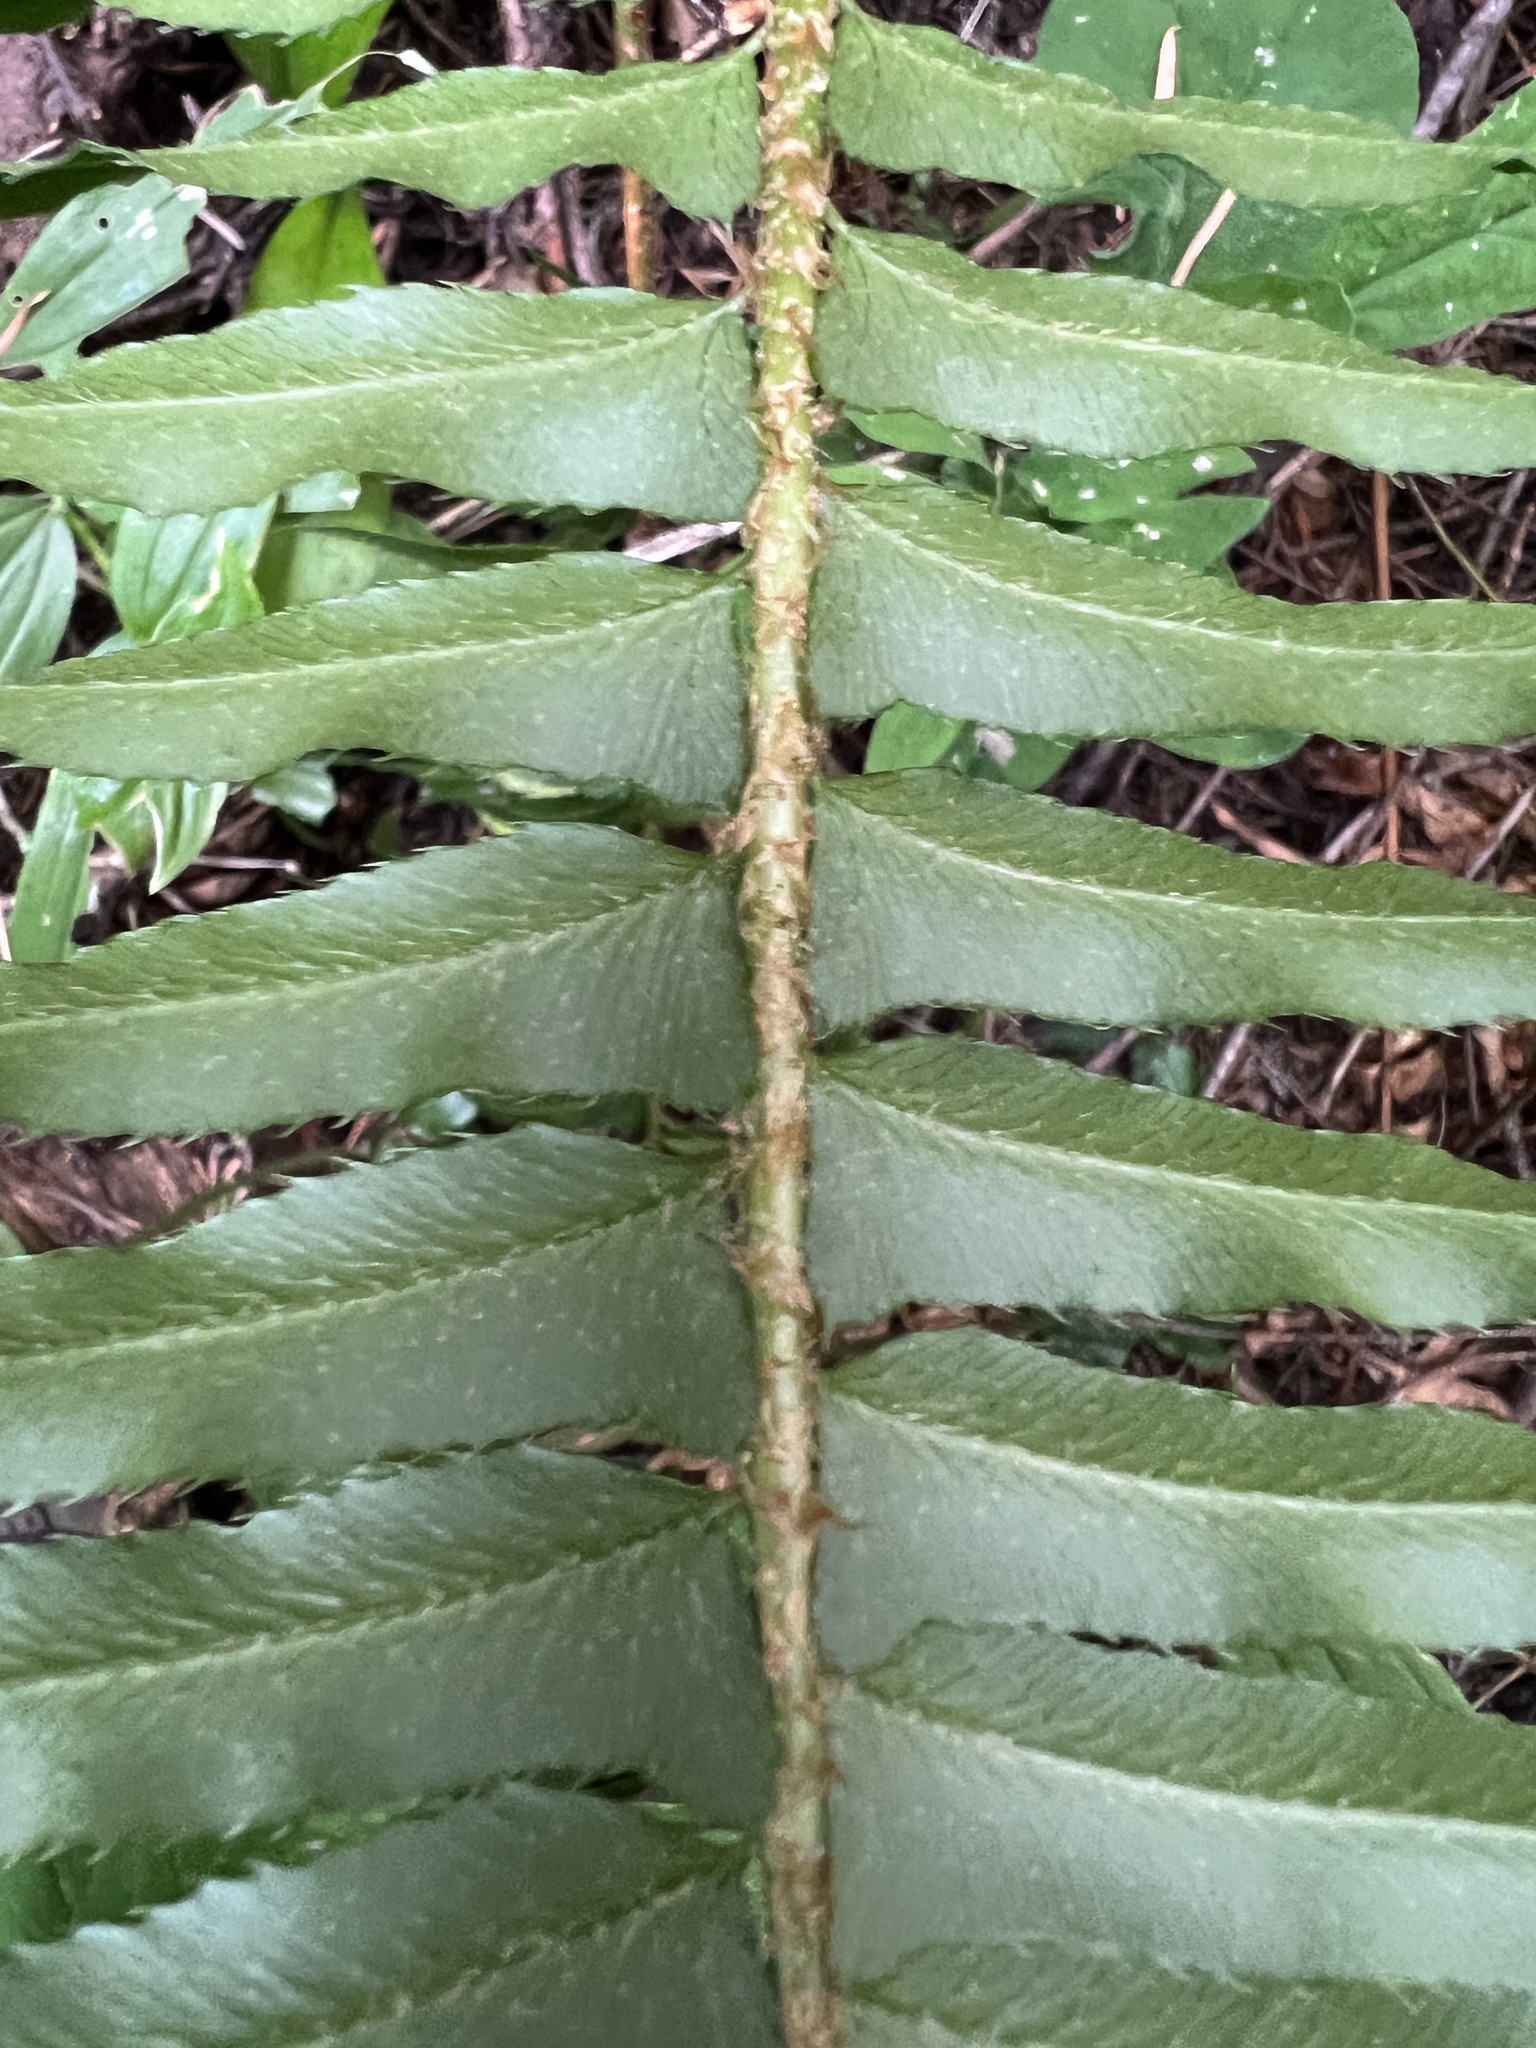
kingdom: Plantae
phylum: Tracheophyta
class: Polypodiopsida
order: Polypodiales
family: Dryopteridaceae
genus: Polystichum
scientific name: Polystichum munitum
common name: Western sword-fern
